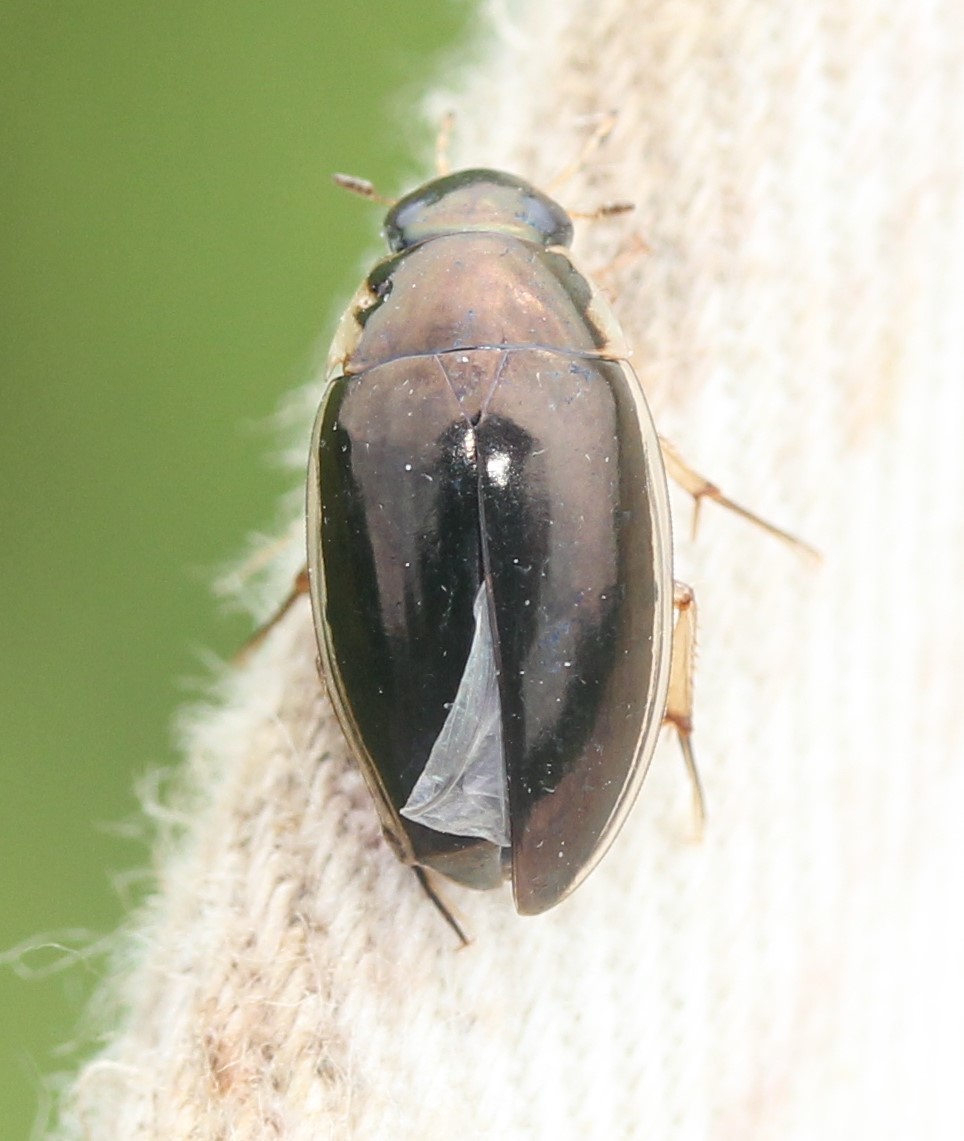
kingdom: Animalia
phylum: Arthropoda
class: Insecta
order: Coleoptera
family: Hydrophilidae
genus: Tropisternus
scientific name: Tropisternus lateralis
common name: Lateral-banded water scavenger beetle
